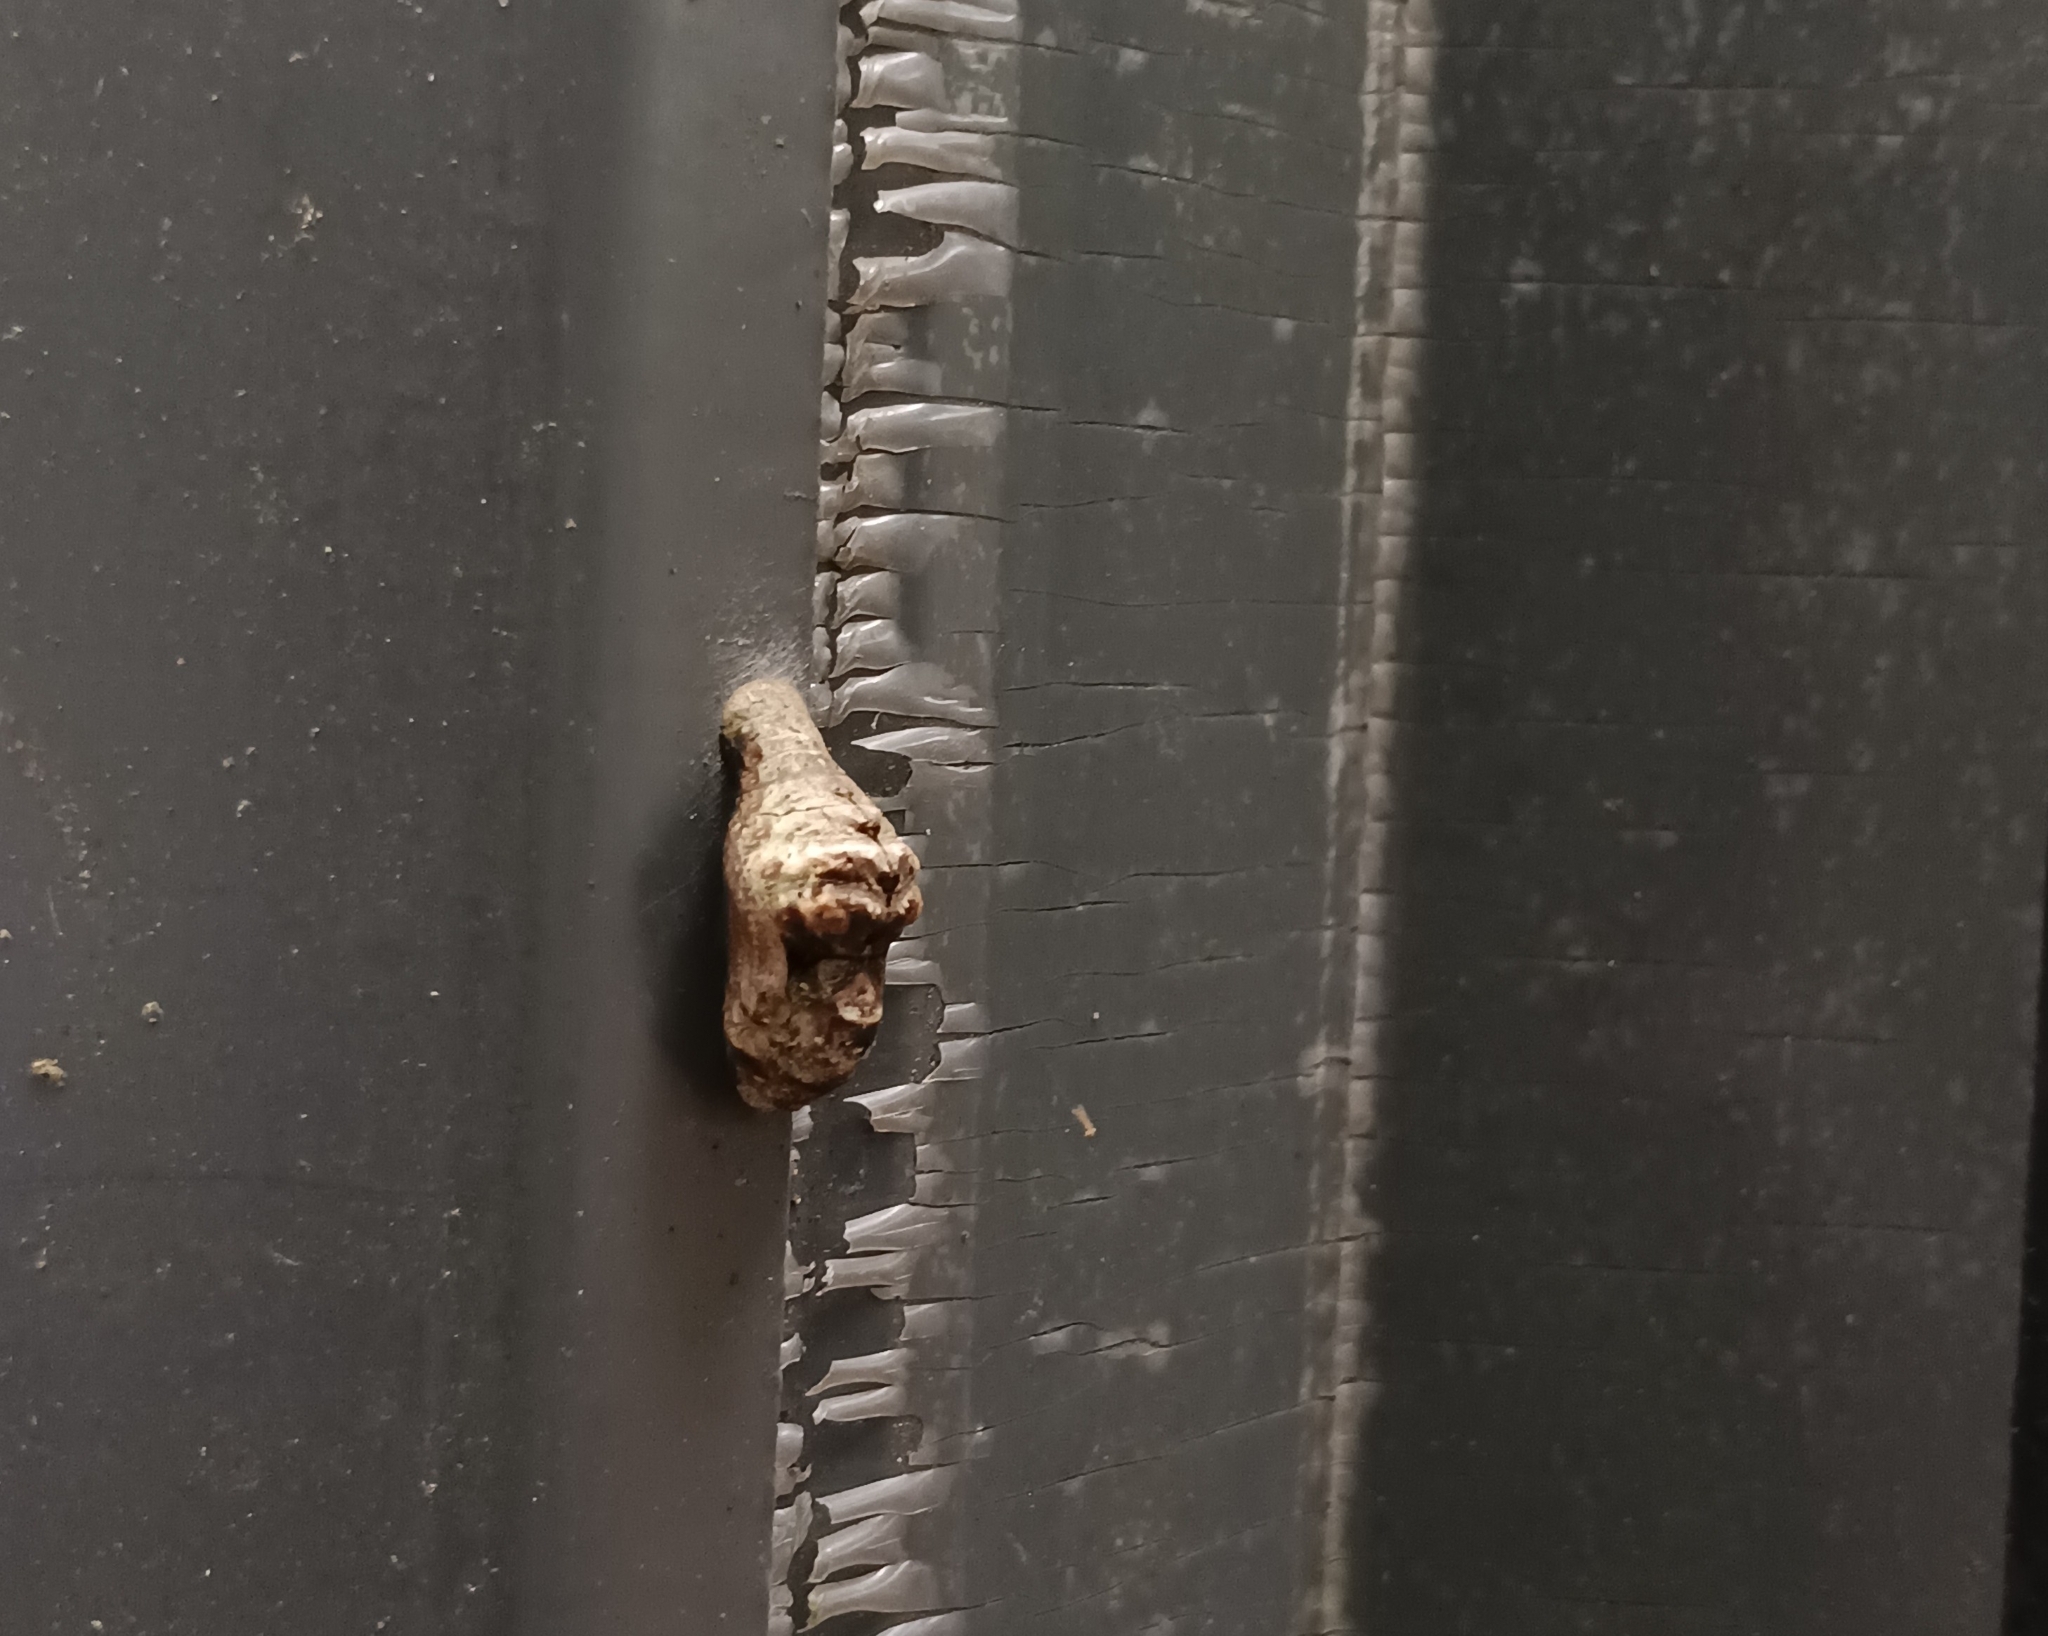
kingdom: Animalia
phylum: Arthropoda
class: Insecta
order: Lepidoptera
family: Lycaenidae
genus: Tajuria
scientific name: Tajuria cippus
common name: Peacock royal
